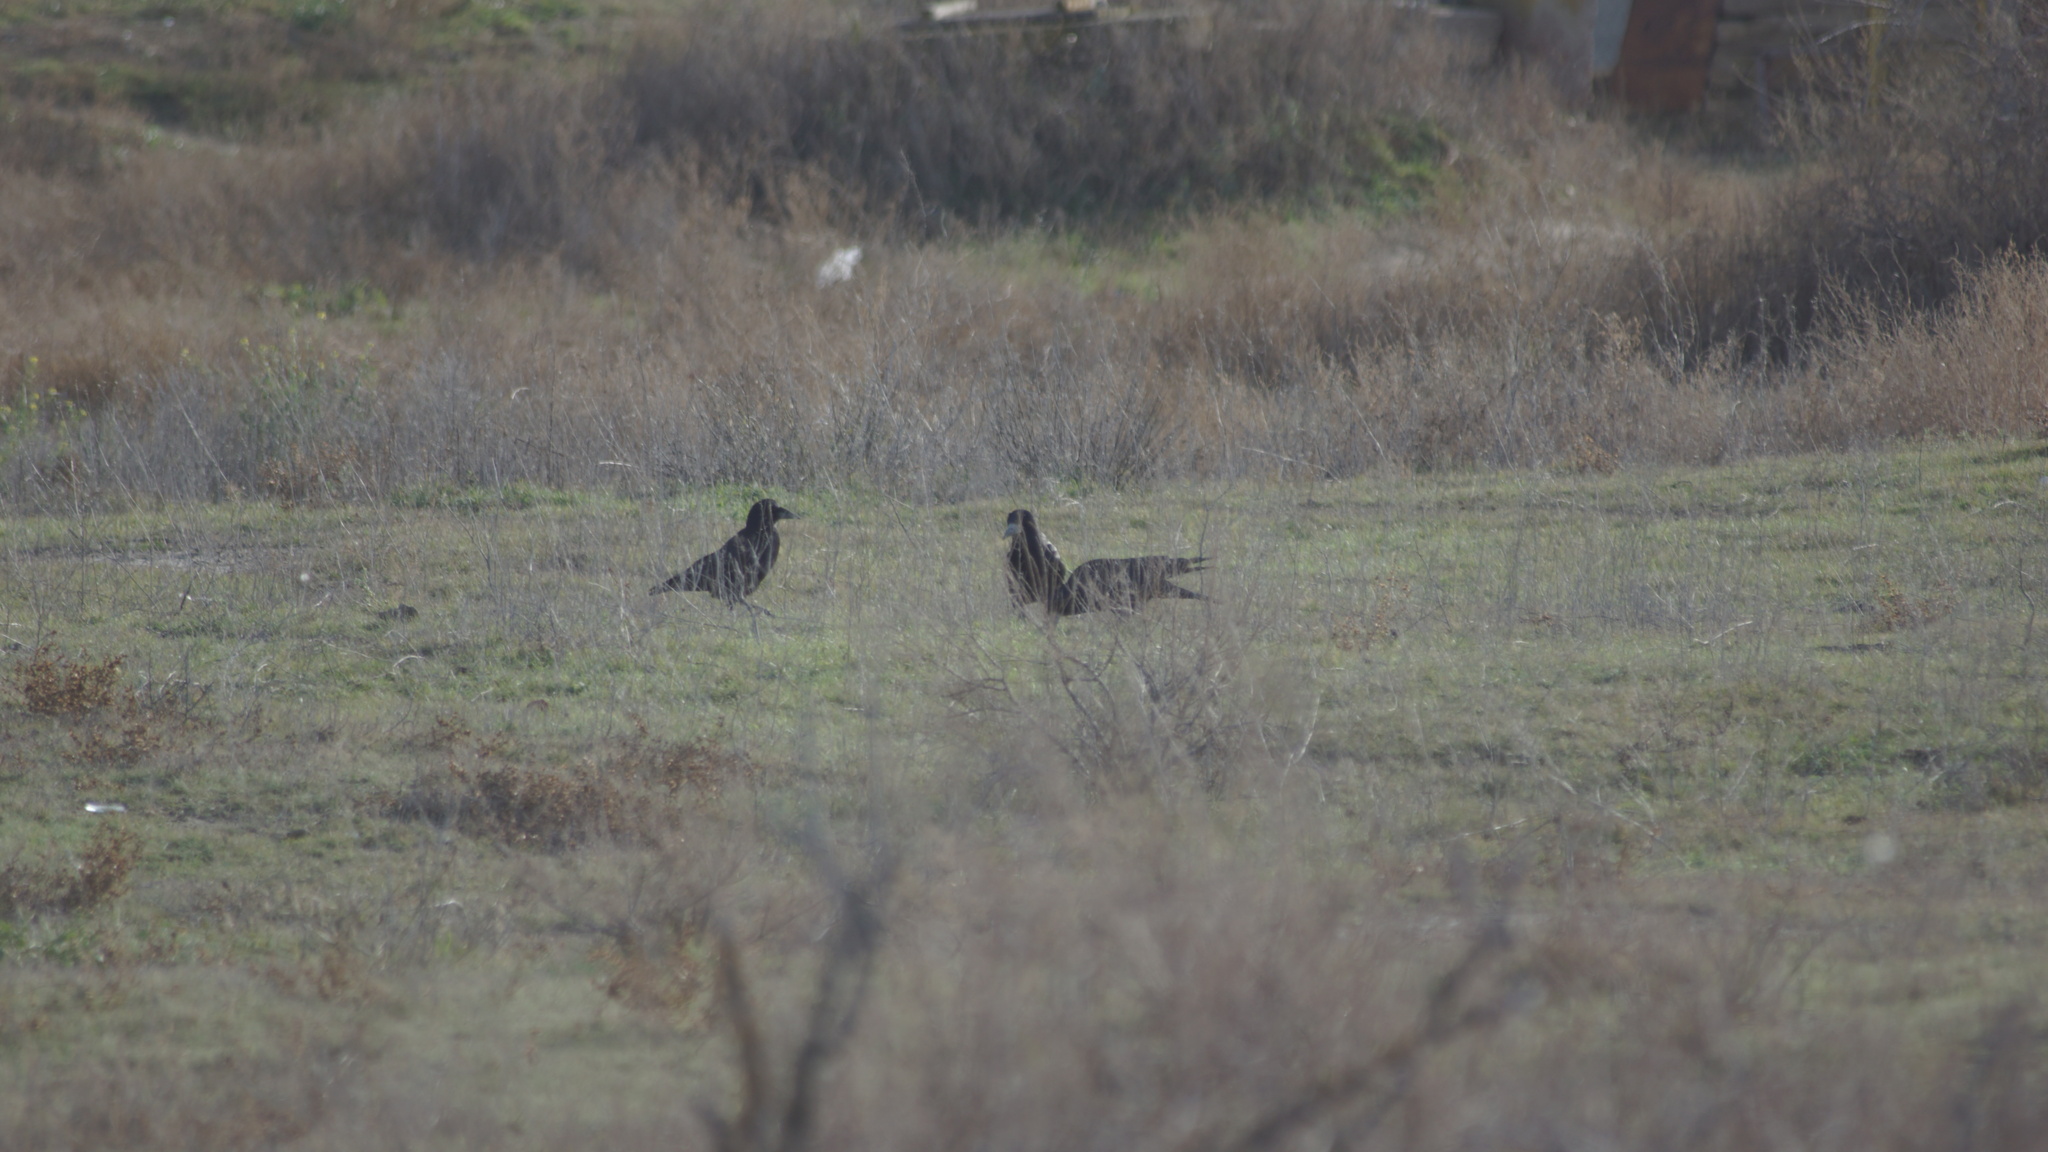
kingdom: Animalia
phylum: Chordata
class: Aves
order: Passeriformes
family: Corvidae
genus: Corvus
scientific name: Corvus frugilegus
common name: Rook
